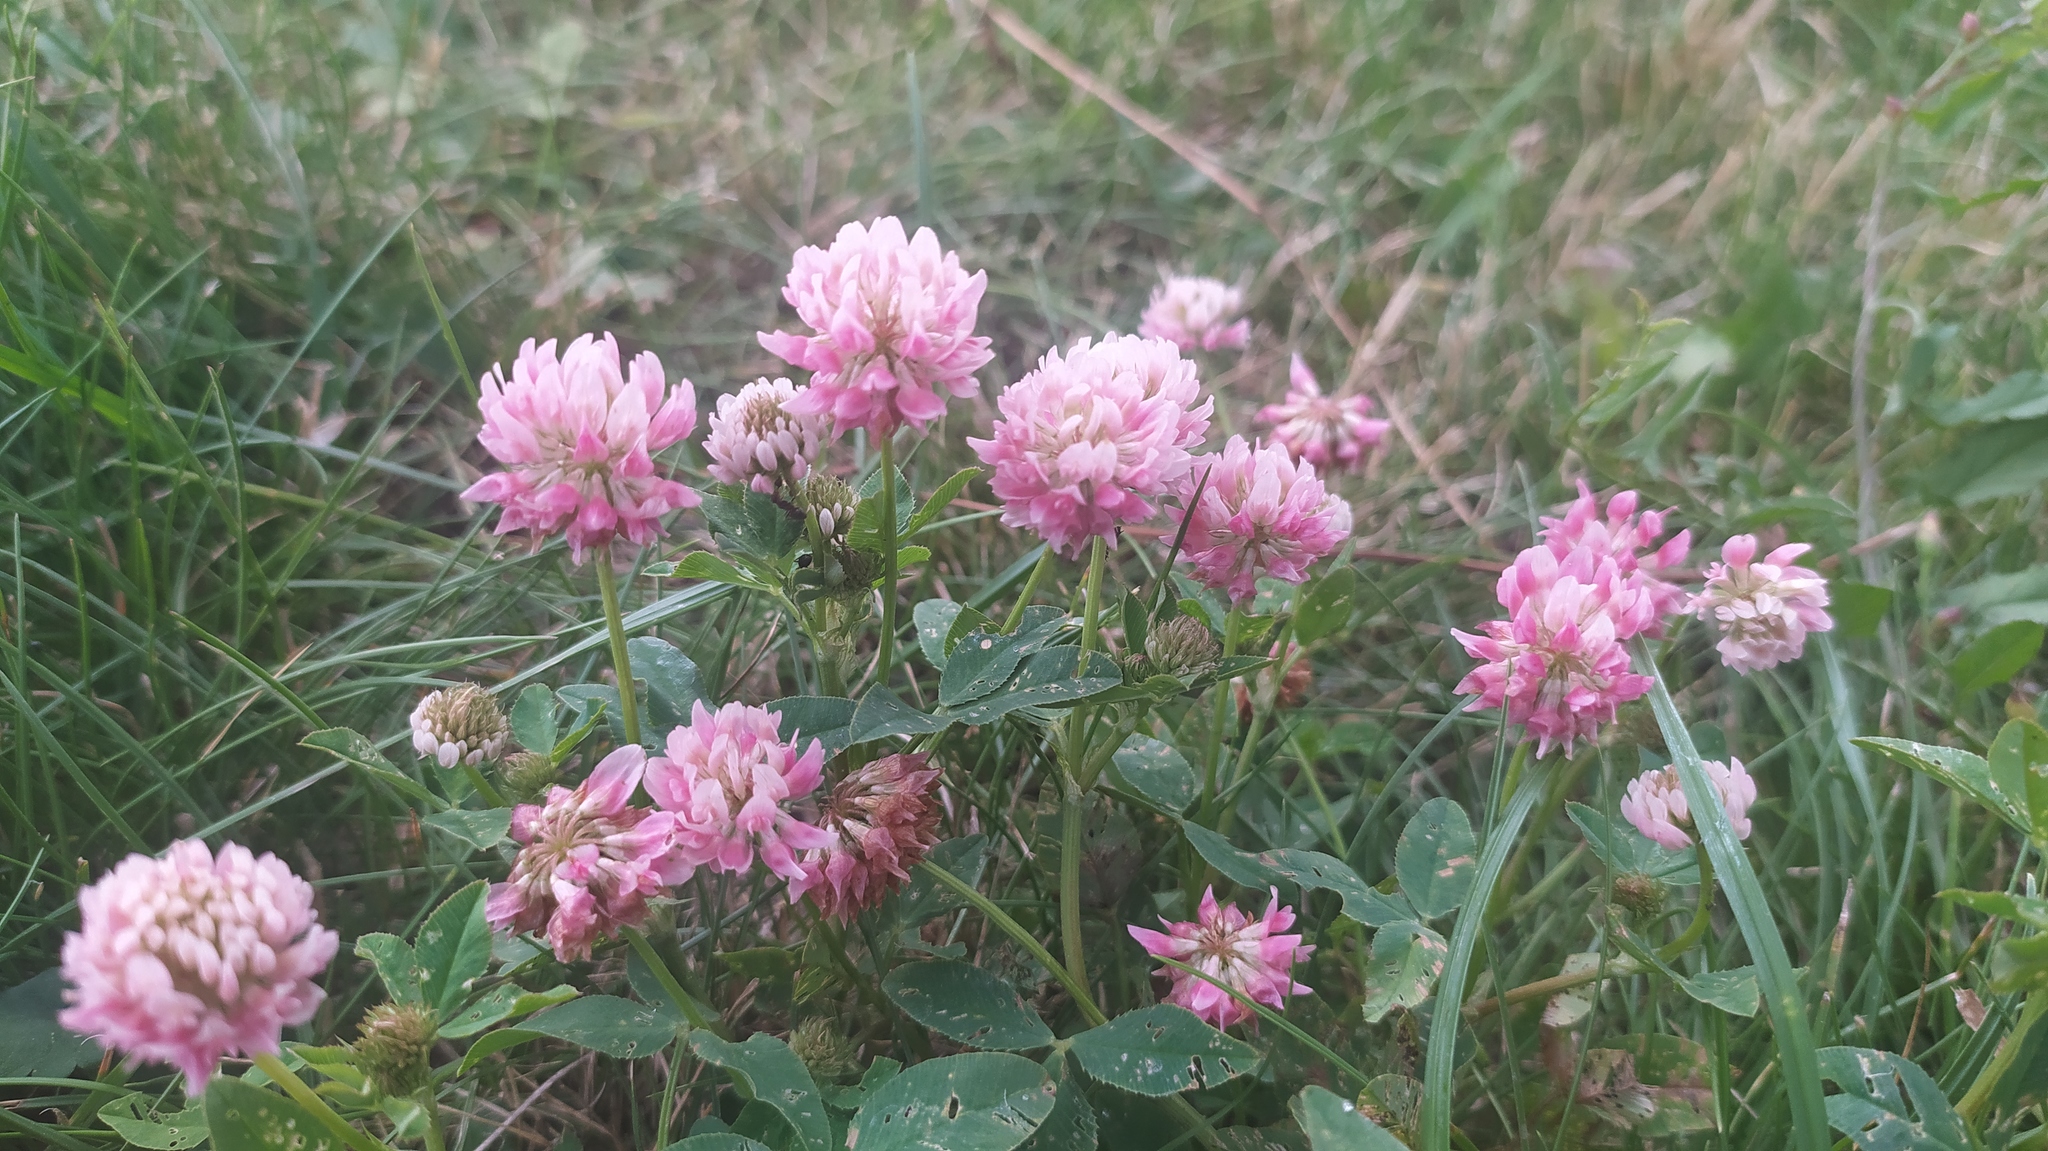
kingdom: Plantae
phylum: Tracheophyta
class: Magnoliopsida
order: Fabales
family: Fabaceae
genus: Trifolium
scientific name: Trifolium hybridum
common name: Alsike clover
